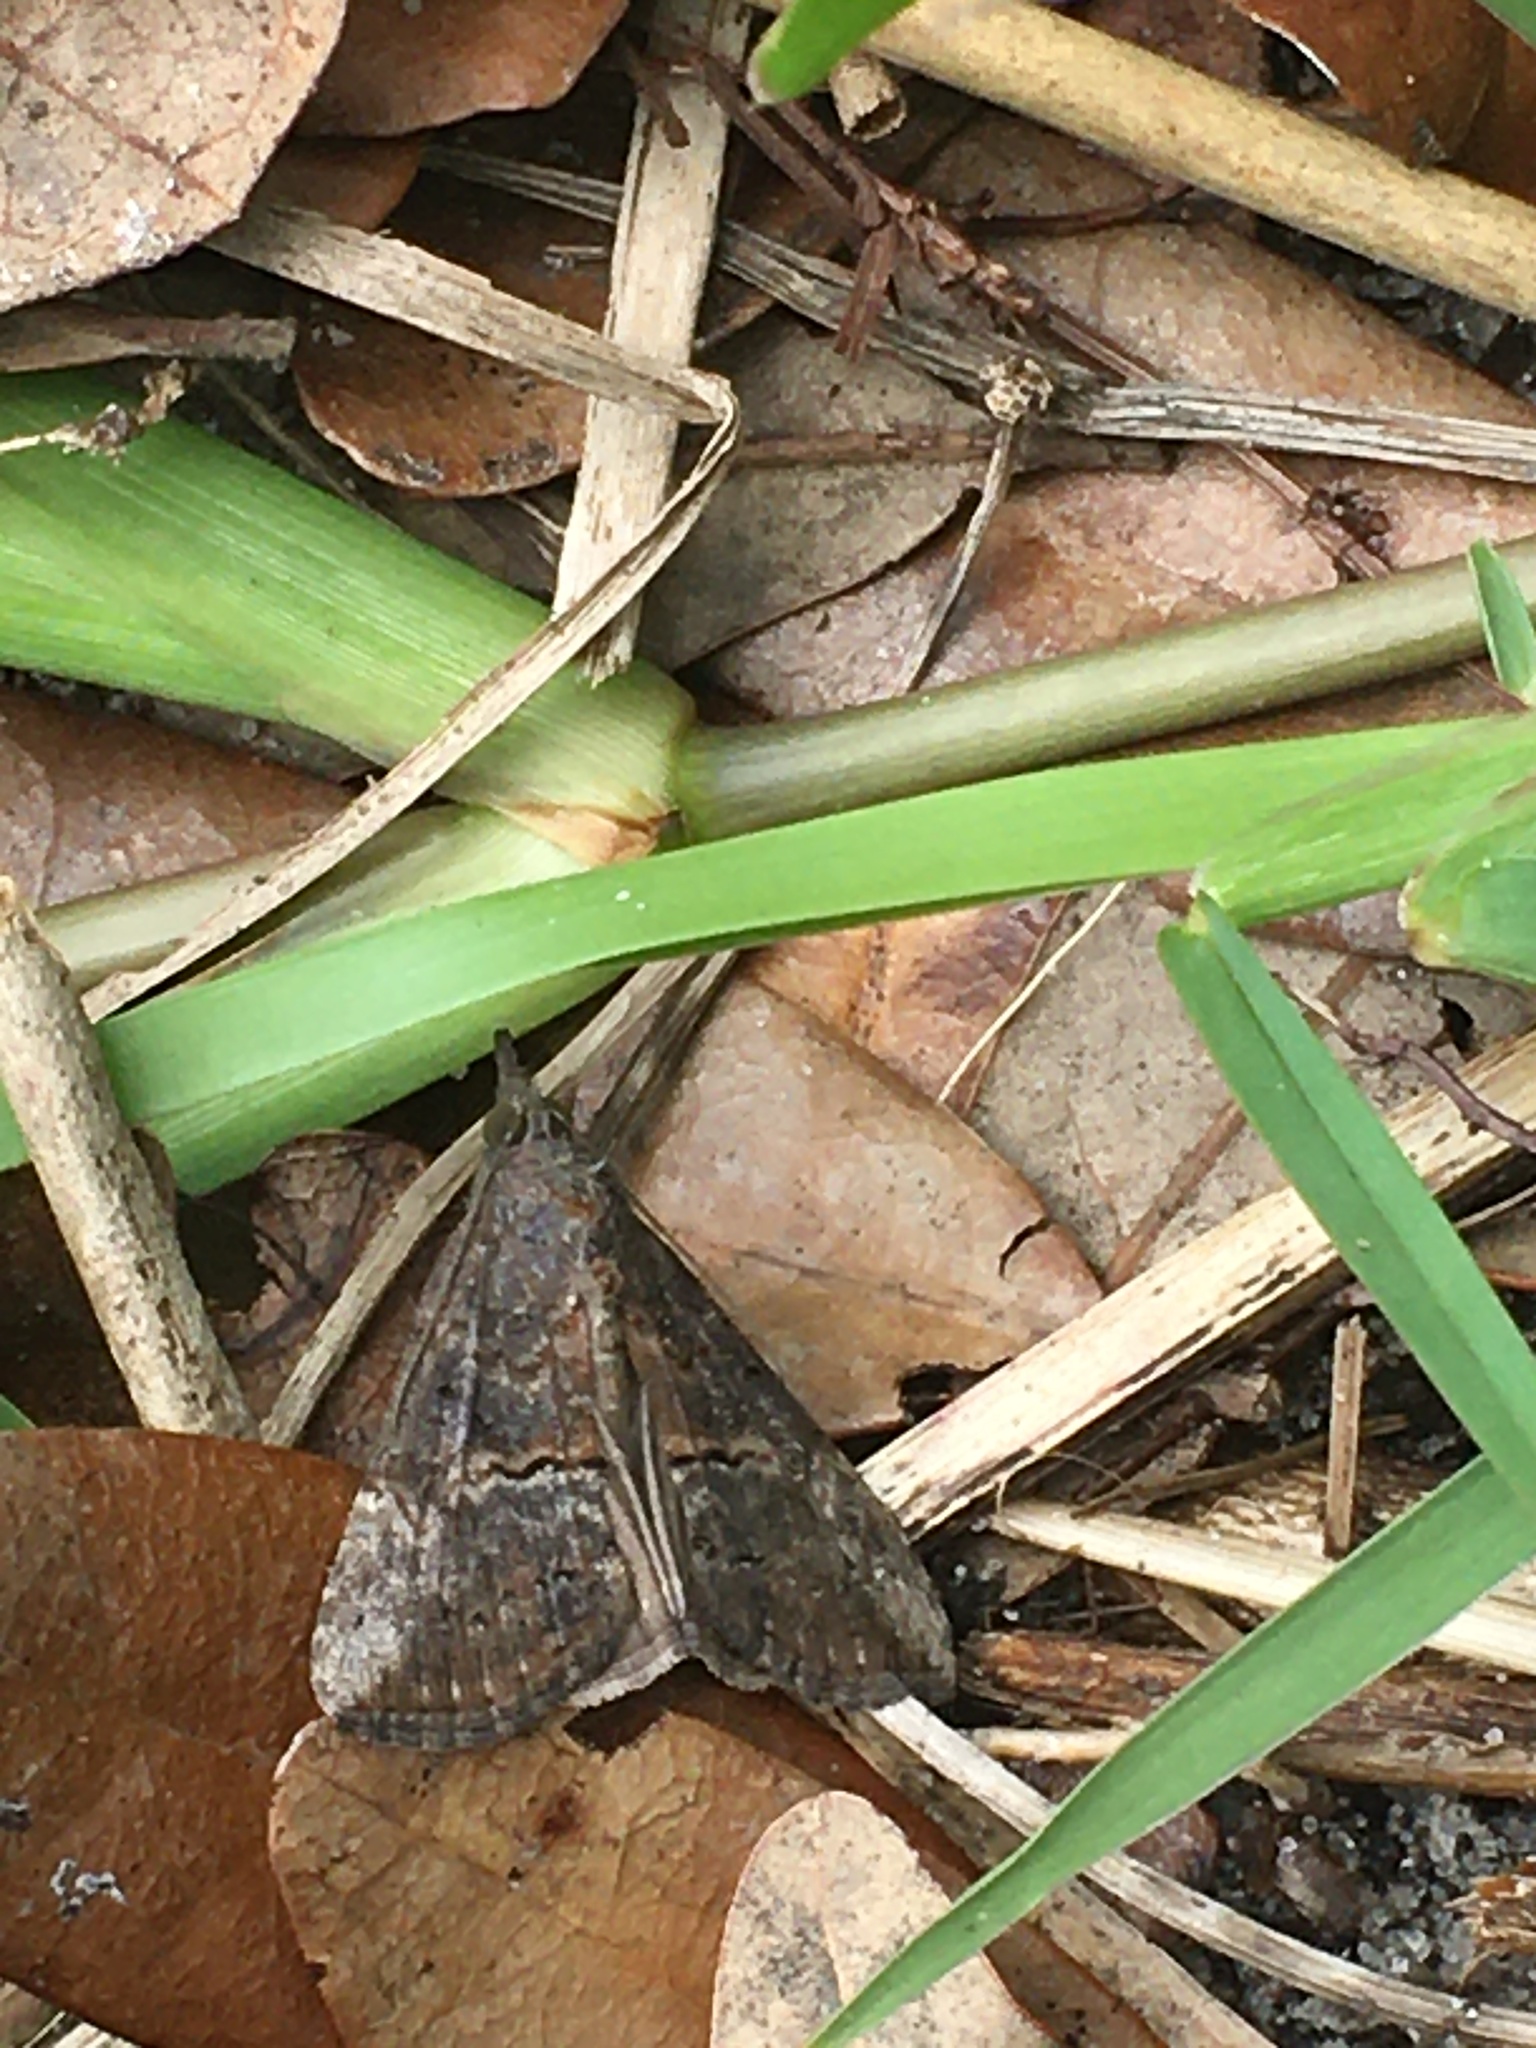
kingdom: Animalia
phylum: Arthropoda
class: Insecta
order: Lepidoptera
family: Erebidae
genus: Hypena
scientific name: Hypena scabra
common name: Green cloverworm
